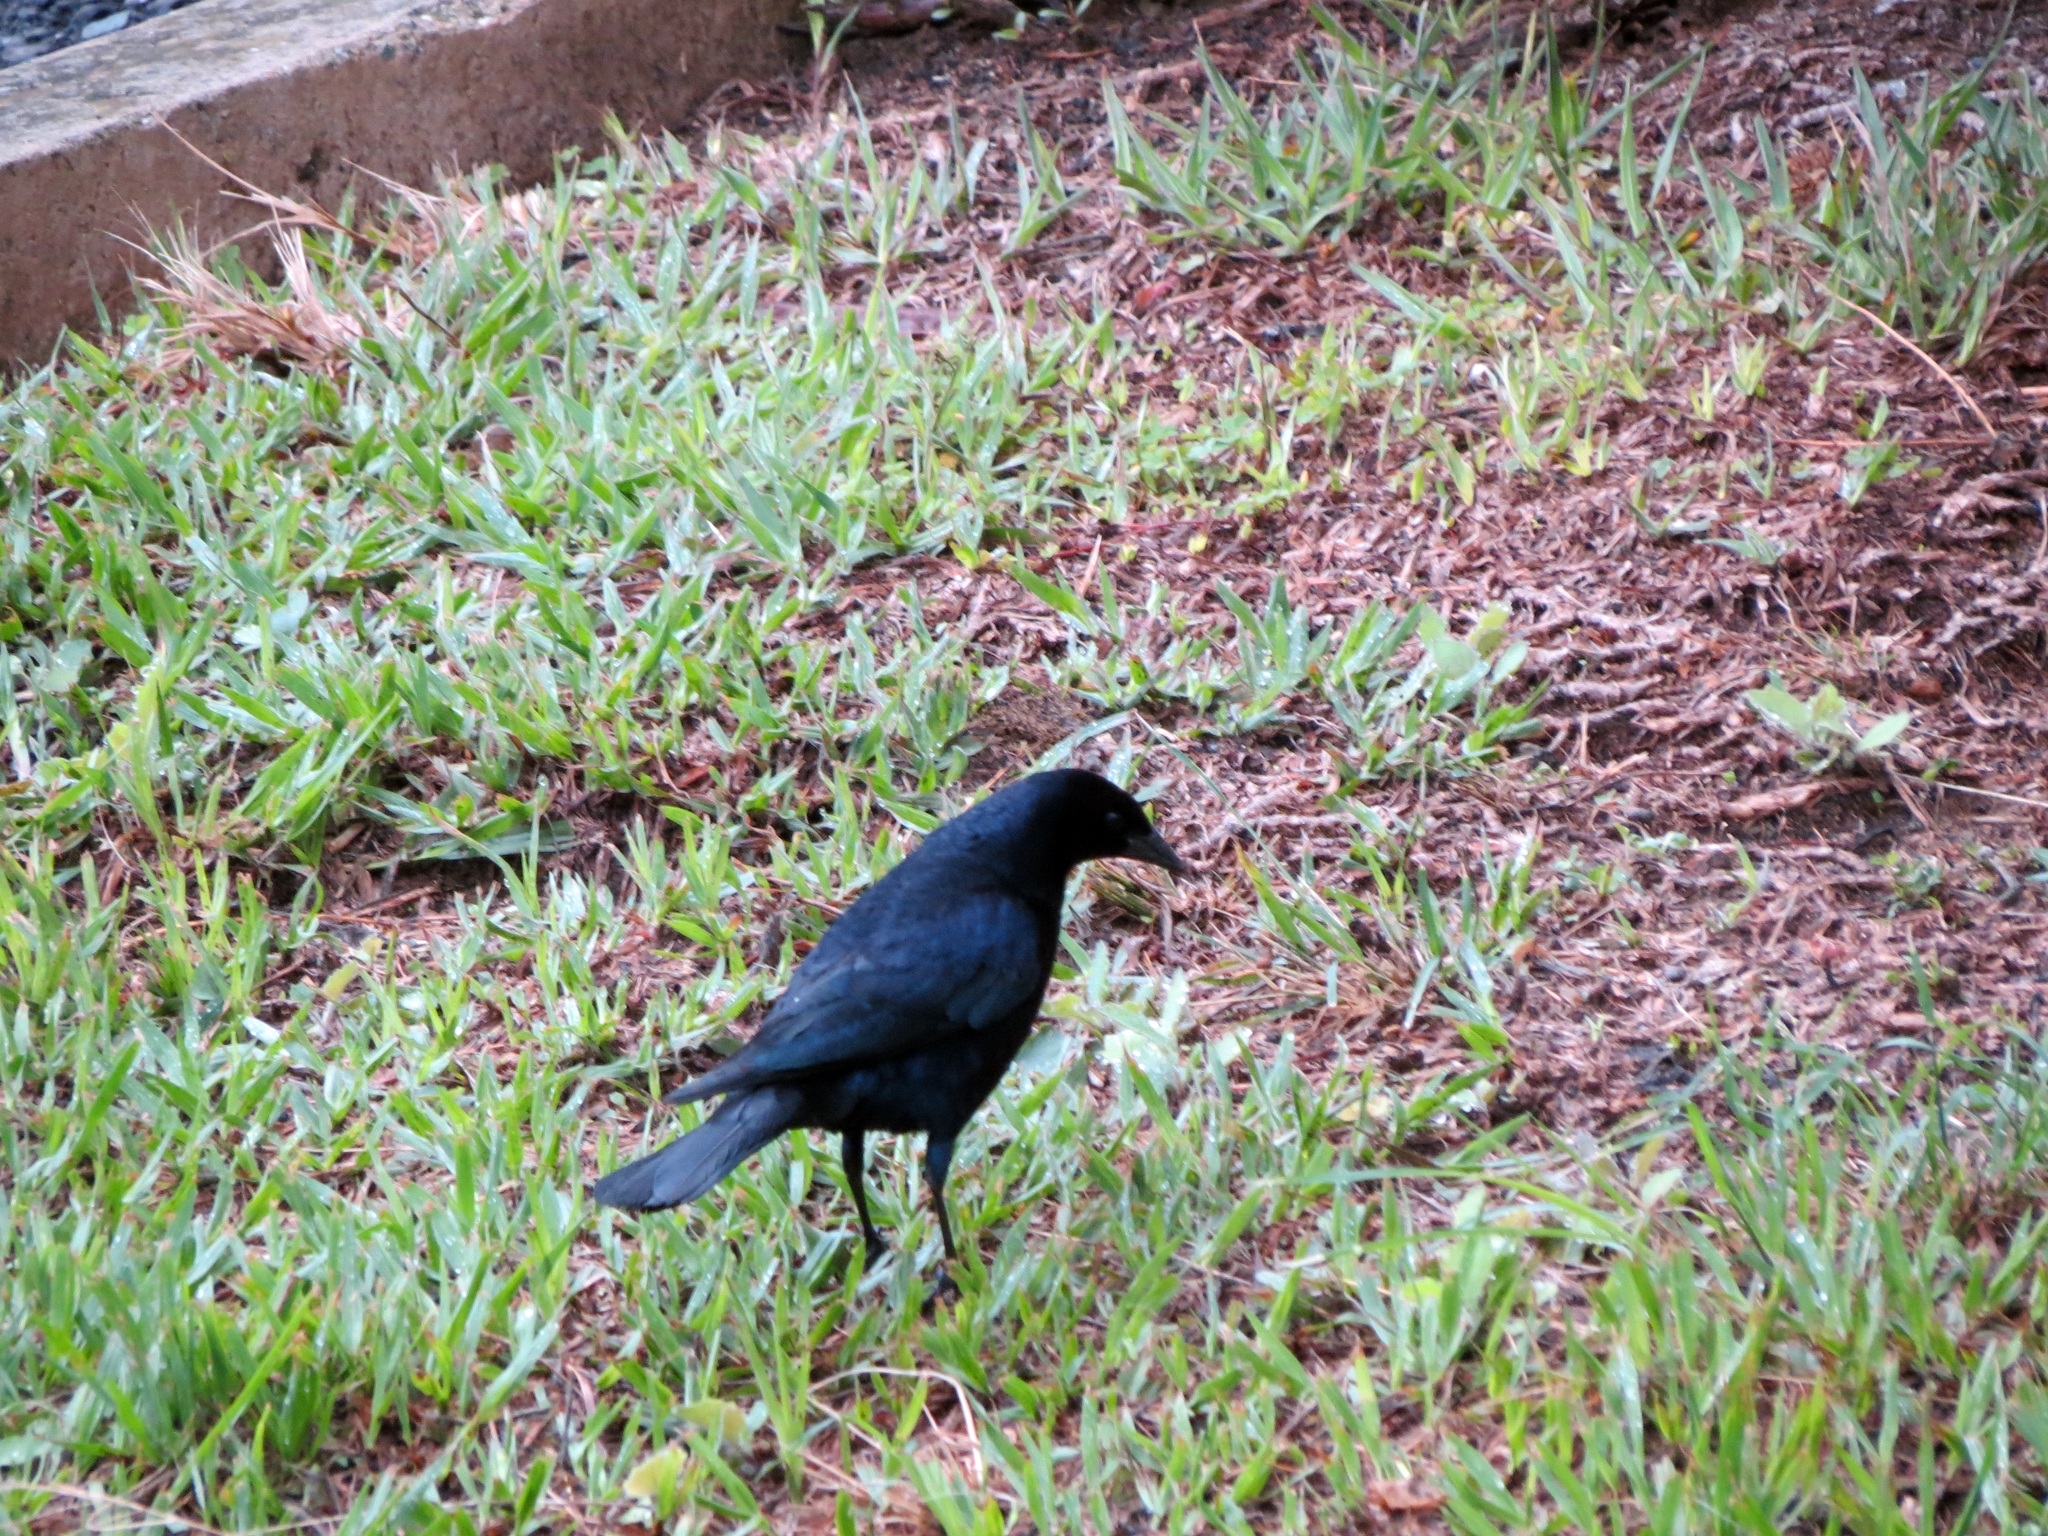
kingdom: Animalia
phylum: Chordata
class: Aves
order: Passeriformes
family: Icteridae
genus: Molothrus
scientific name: Molothrus bonariensis
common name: Shiny cowbird
